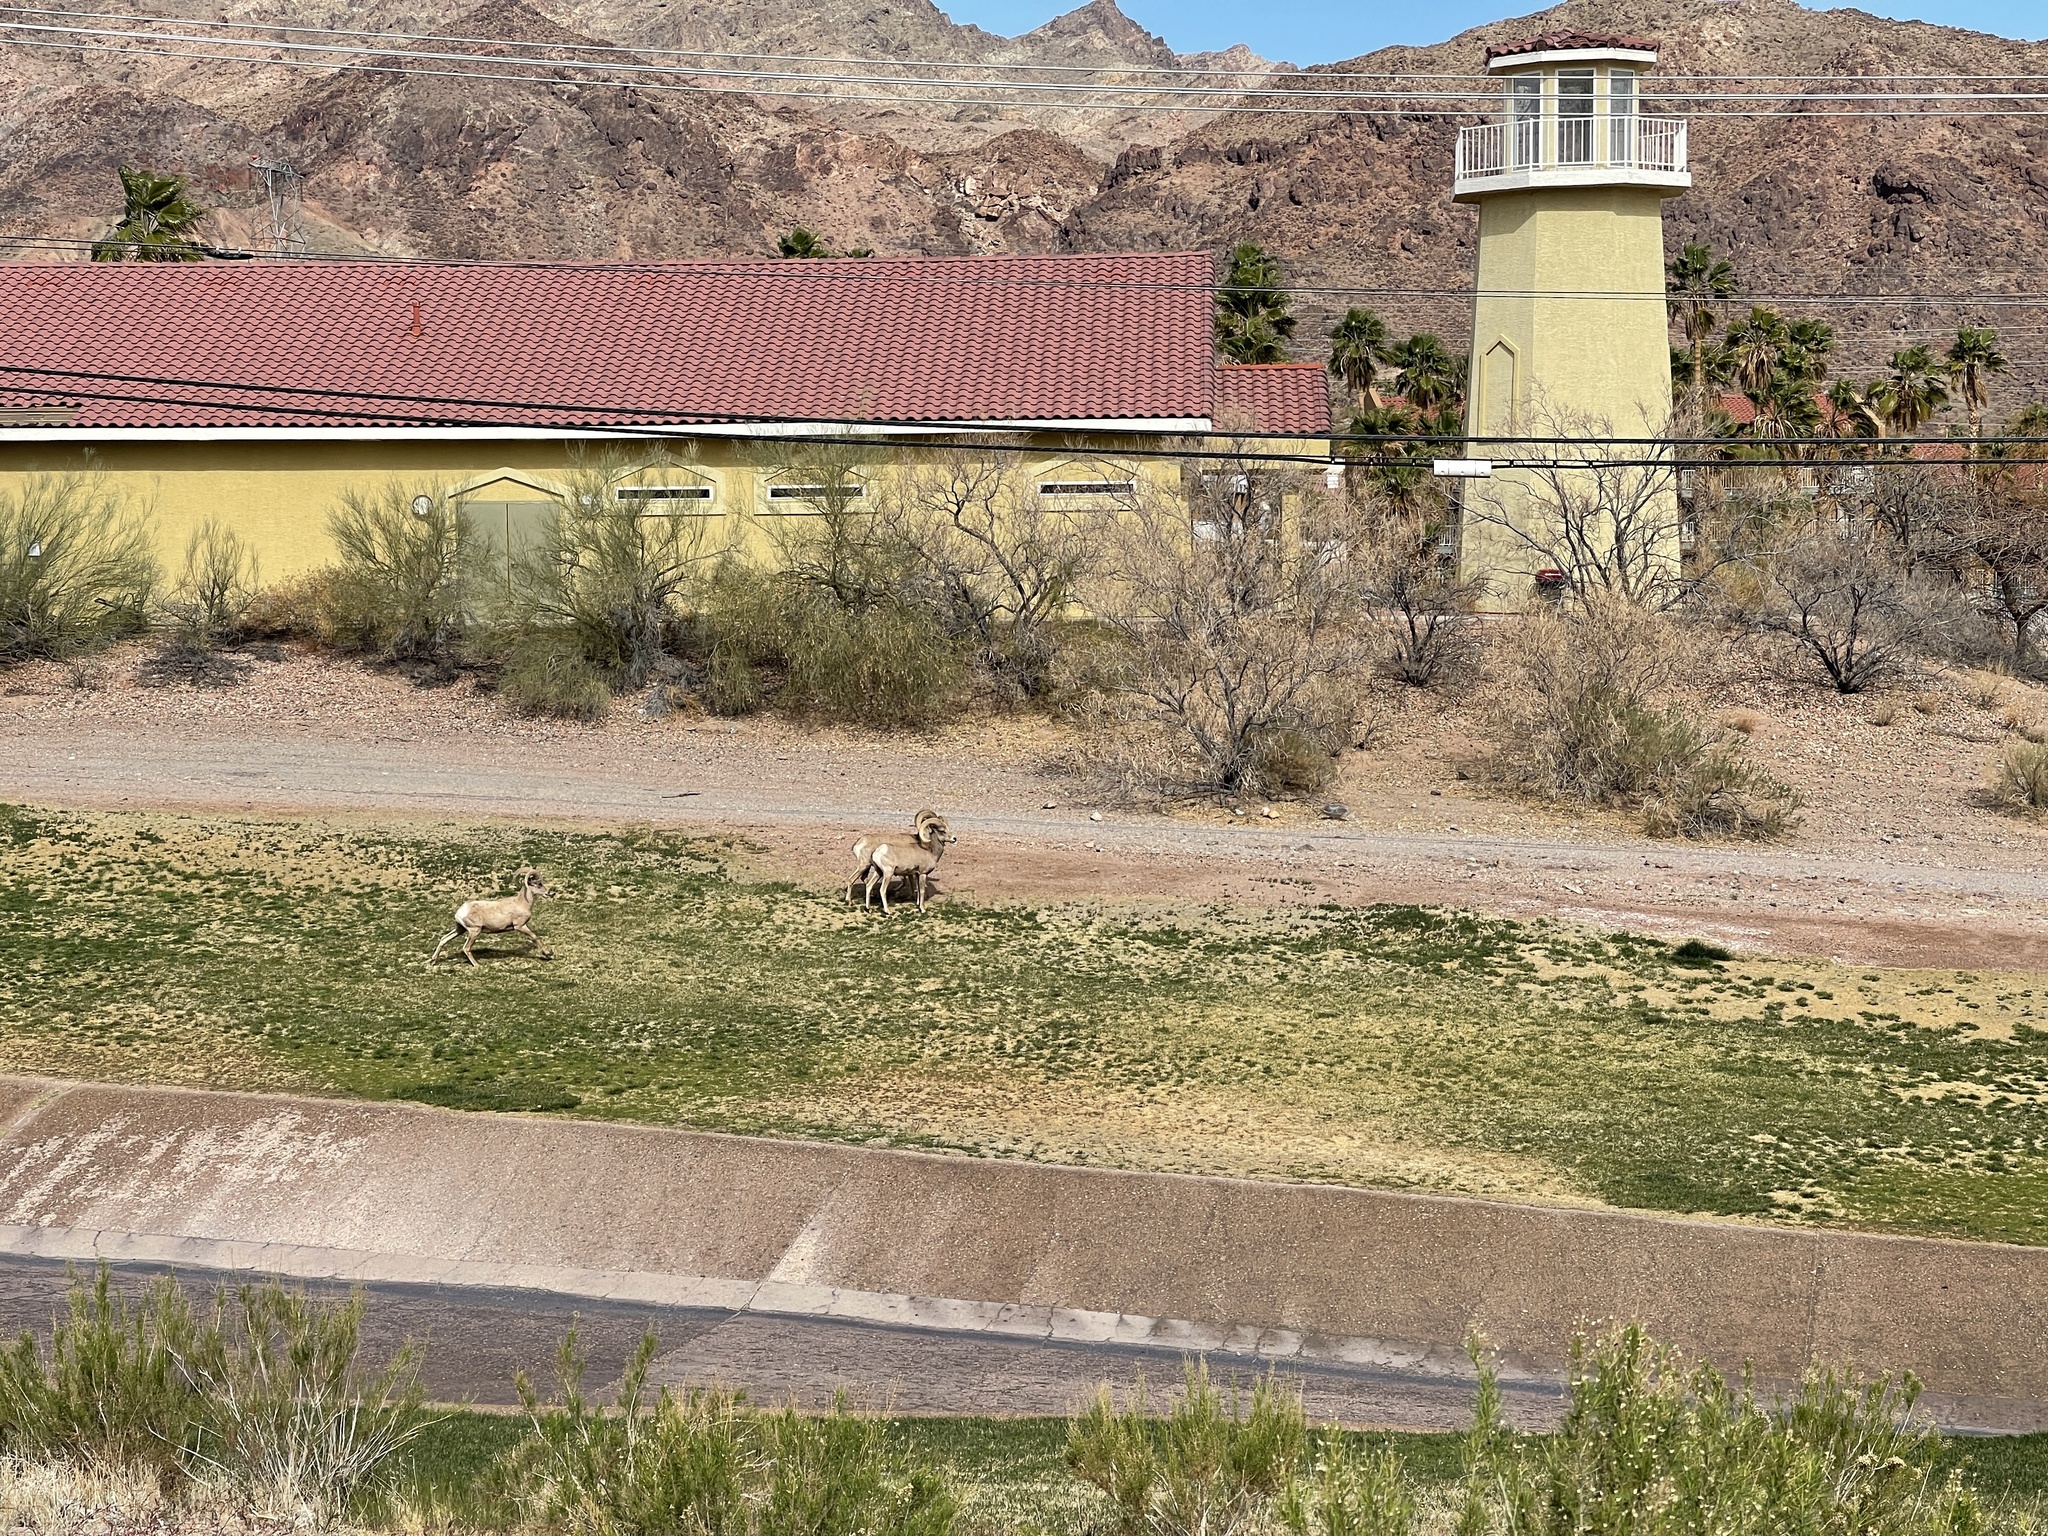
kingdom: Animalia
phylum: Chordata
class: Mammalia
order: Artiodactyla
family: Bovidae
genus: Ovis
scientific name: Ovis canadensis
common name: Bighorn sheep
